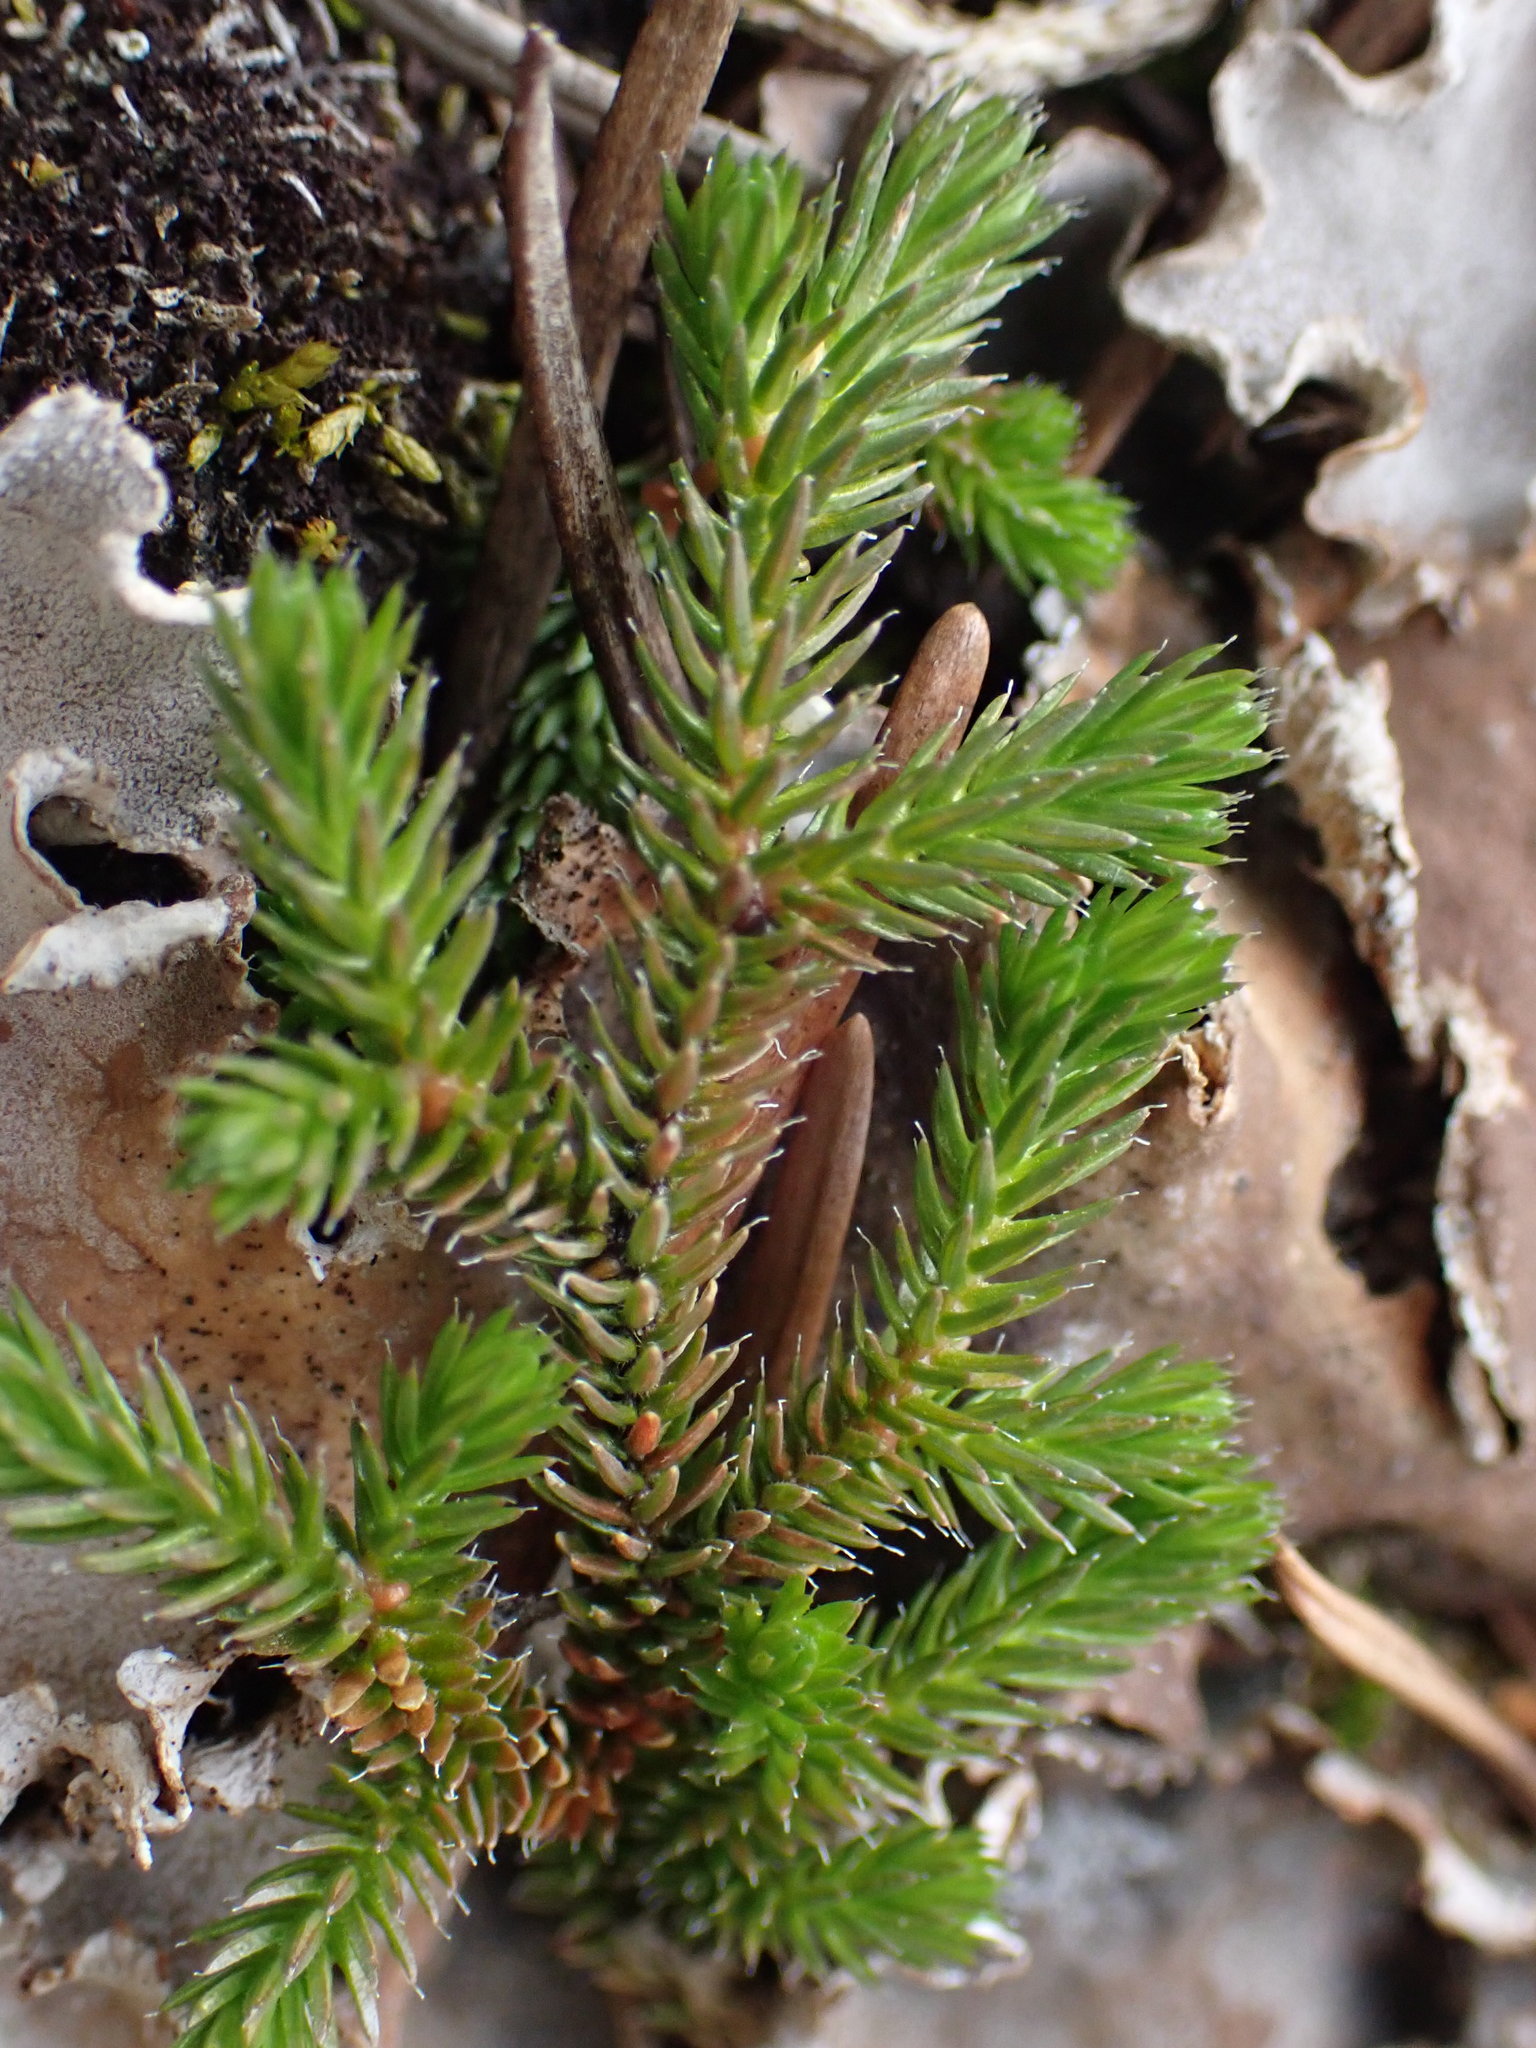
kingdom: Plantae
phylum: Tracheophyta
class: Lycopodiopsida
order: Selaginellales
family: Selaginellaceae
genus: Selaginella
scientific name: Selaginella wallacei
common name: Wallace's selaginella
